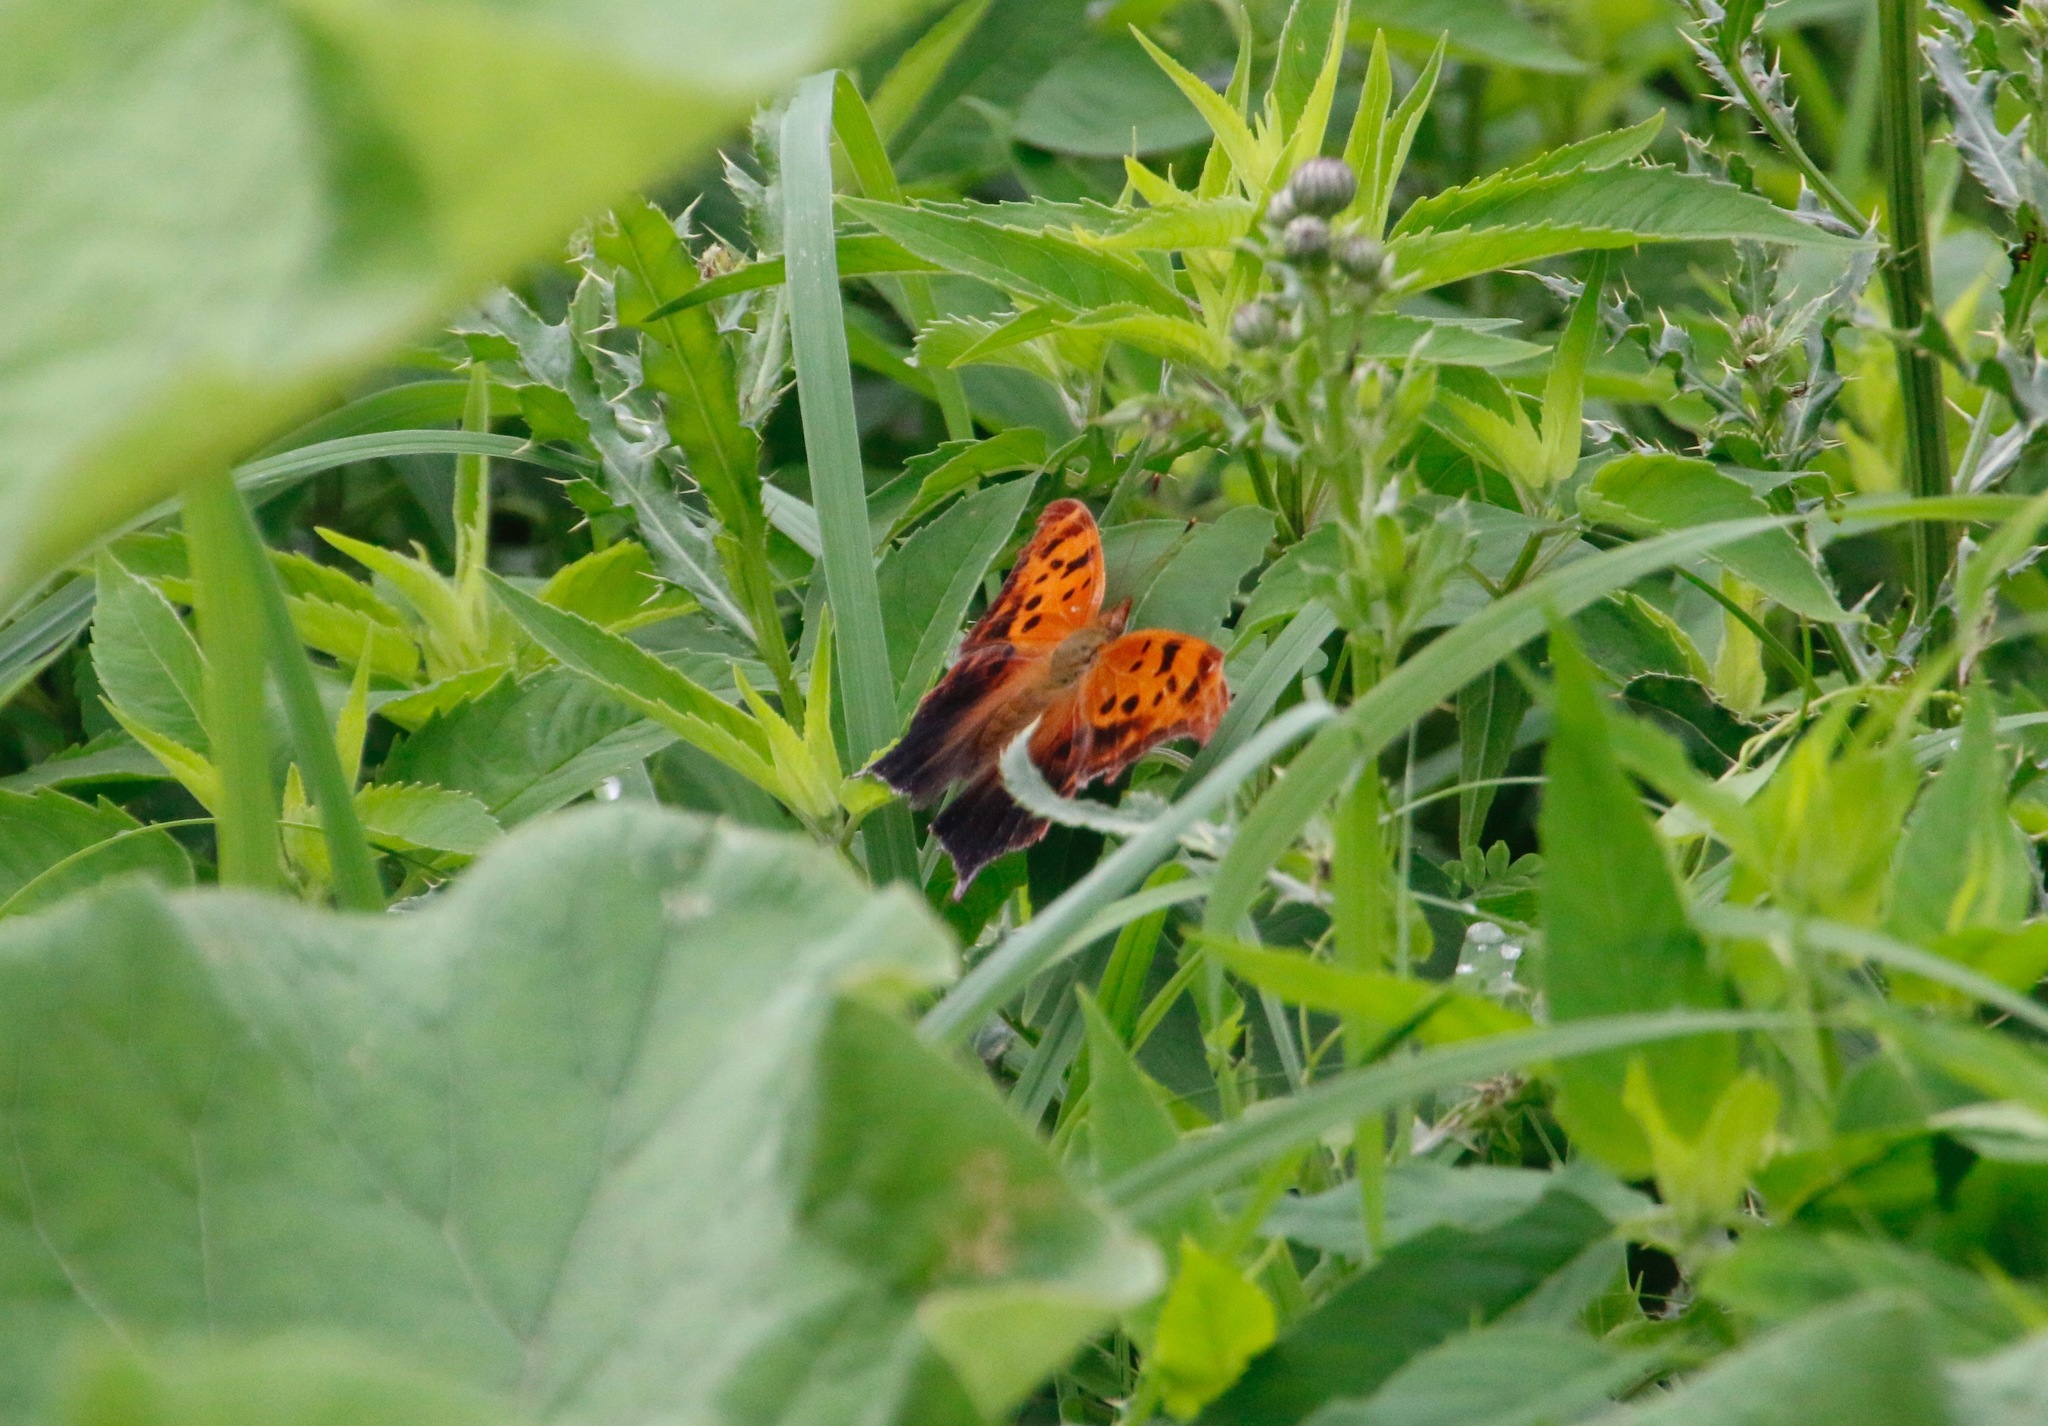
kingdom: Animalia
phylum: Arthropoda
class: Insecta
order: Lepidoptera
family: Nymphalidae
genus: Polygonia
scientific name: Polygonia interrogationis
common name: Question mark
